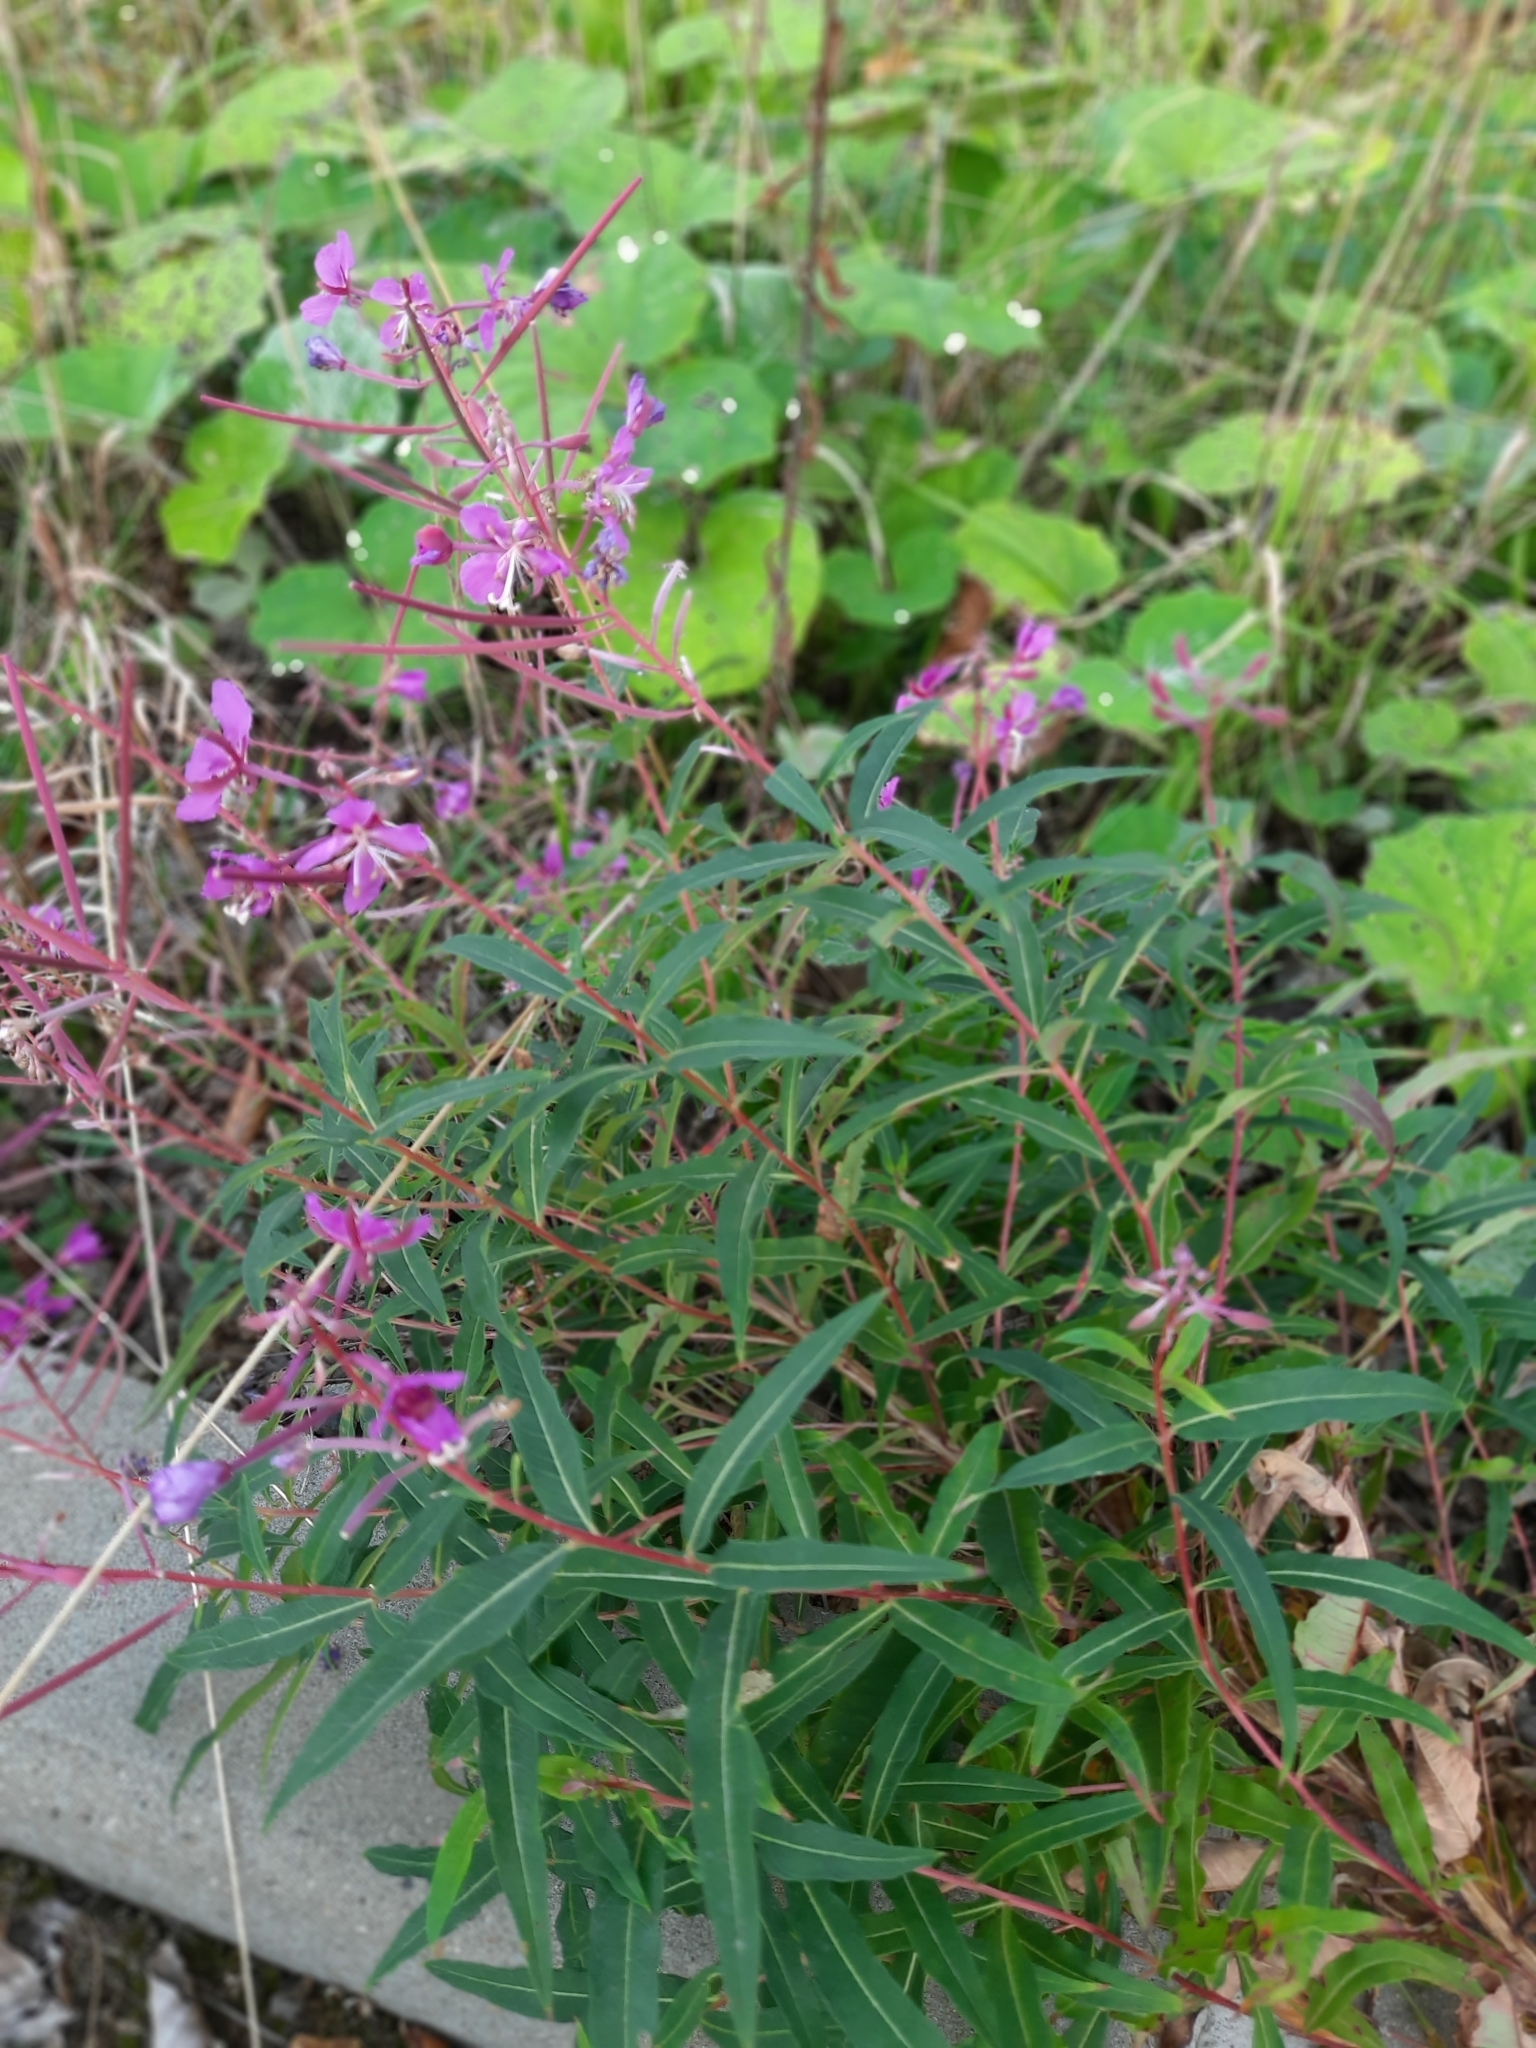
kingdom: Plantae
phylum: Tracheophyta
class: Magnoliopsida
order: Myrtales
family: Onagraceae
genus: Chamaenerion
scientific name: Chamaenerion angustifolium
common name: Fireweed
